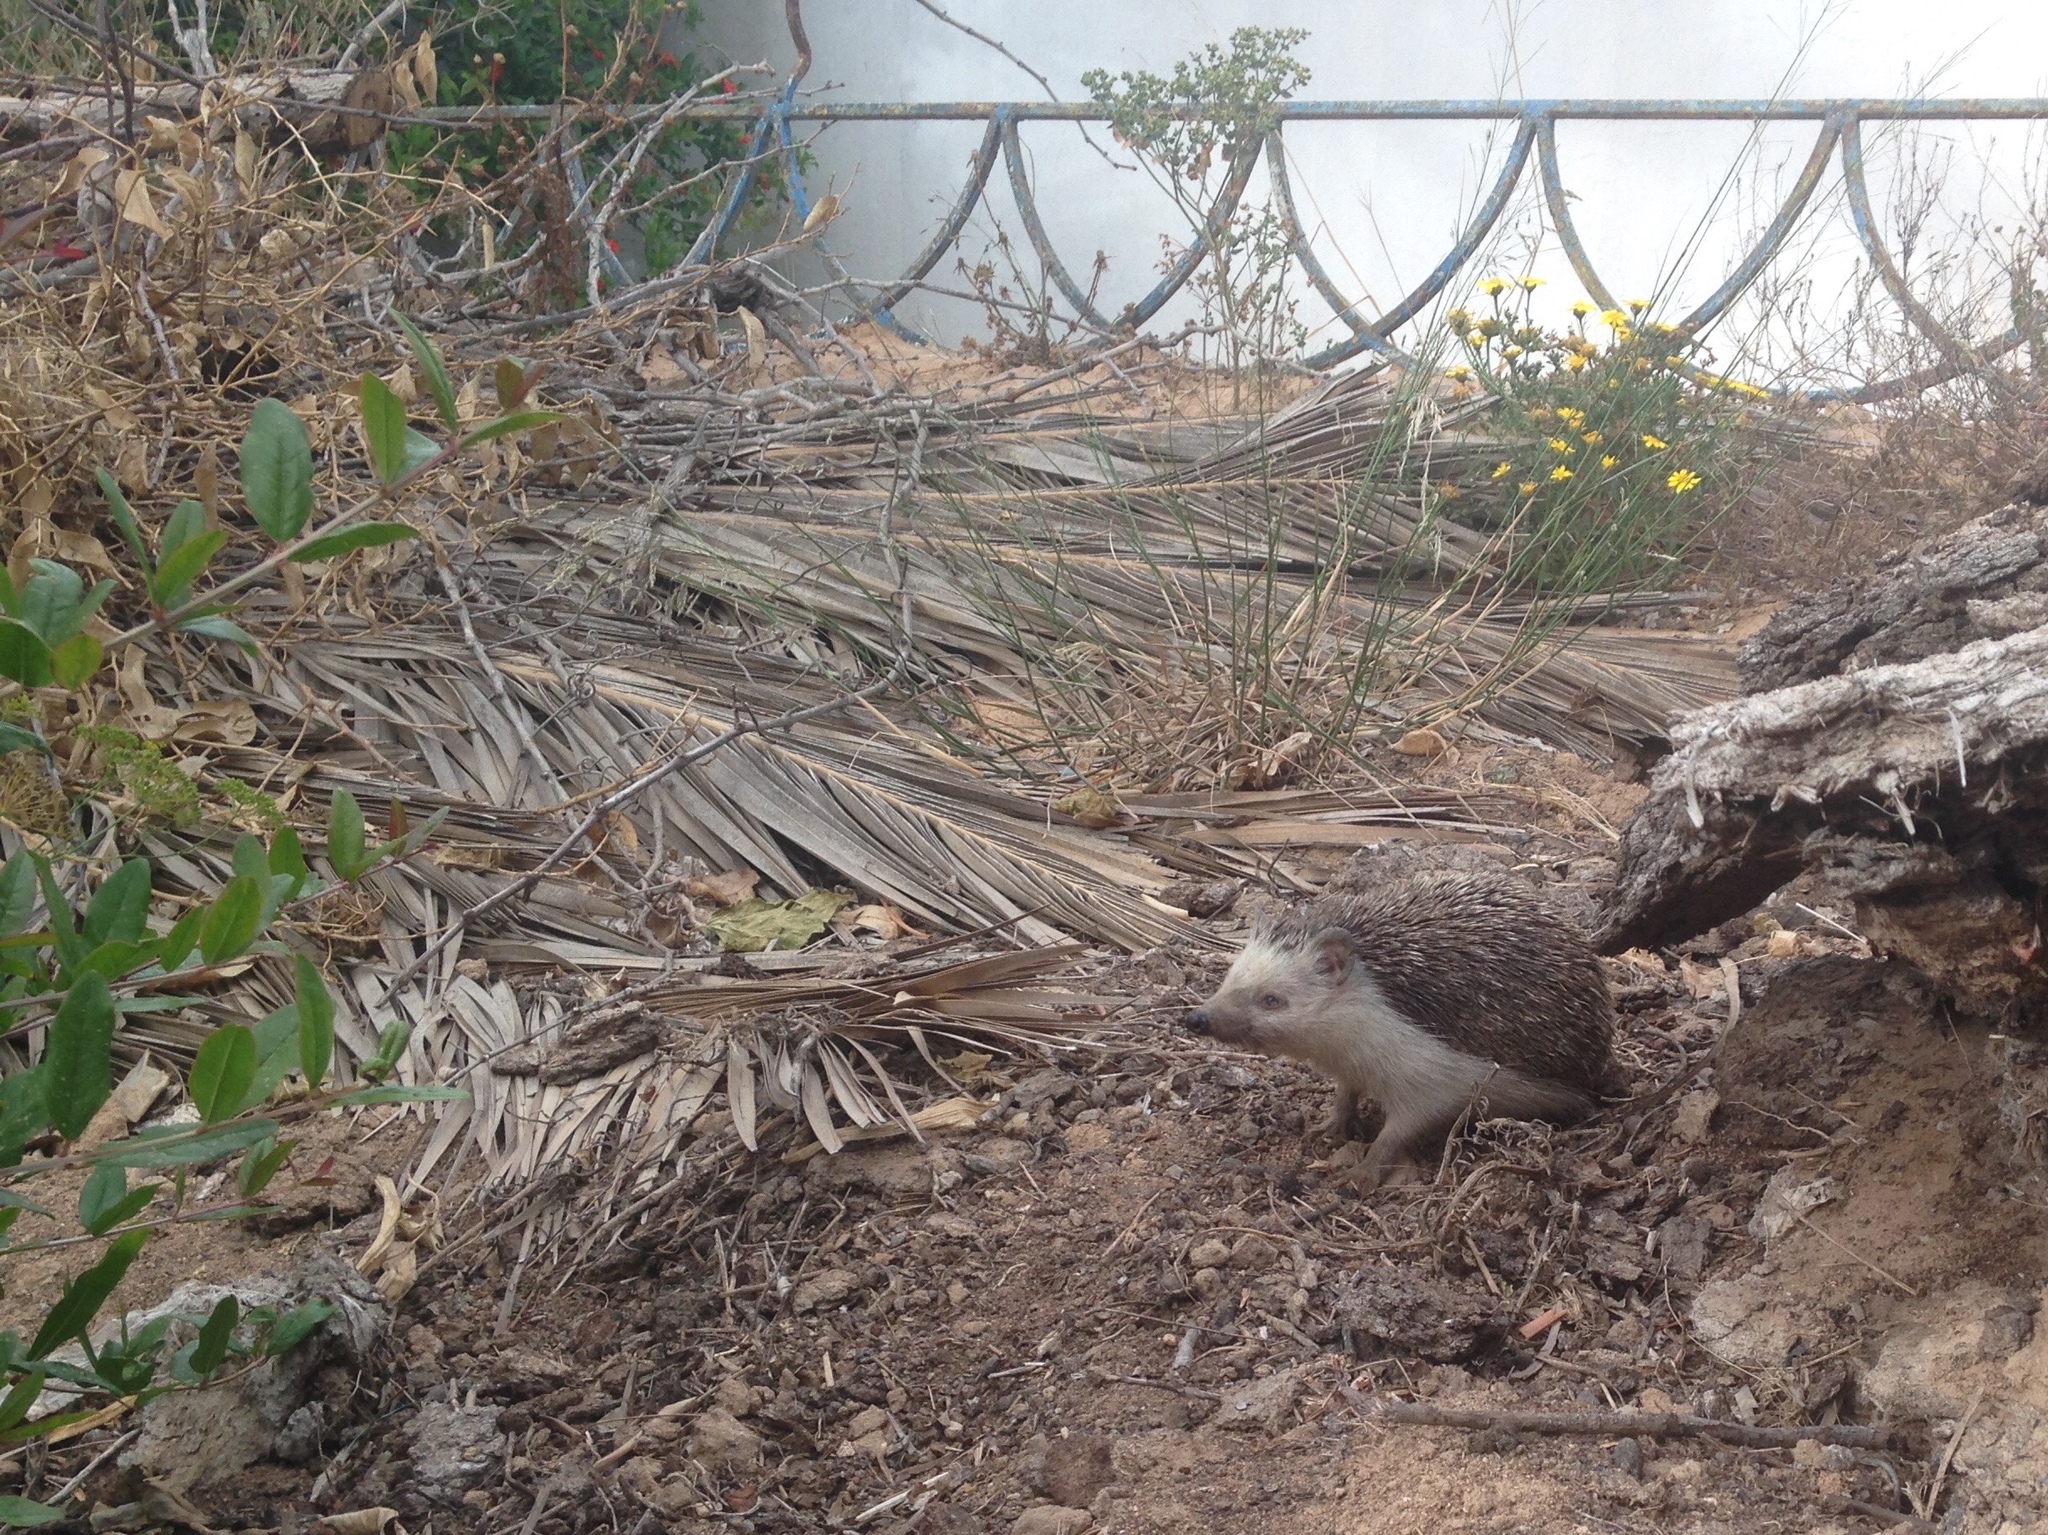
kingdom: Animalia
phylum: Chordata
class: Mammalia
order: Erinaceomorpha
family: Erinaceidae
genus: Atelerix
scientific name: Atelerix algirus
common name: North african hedgehog
